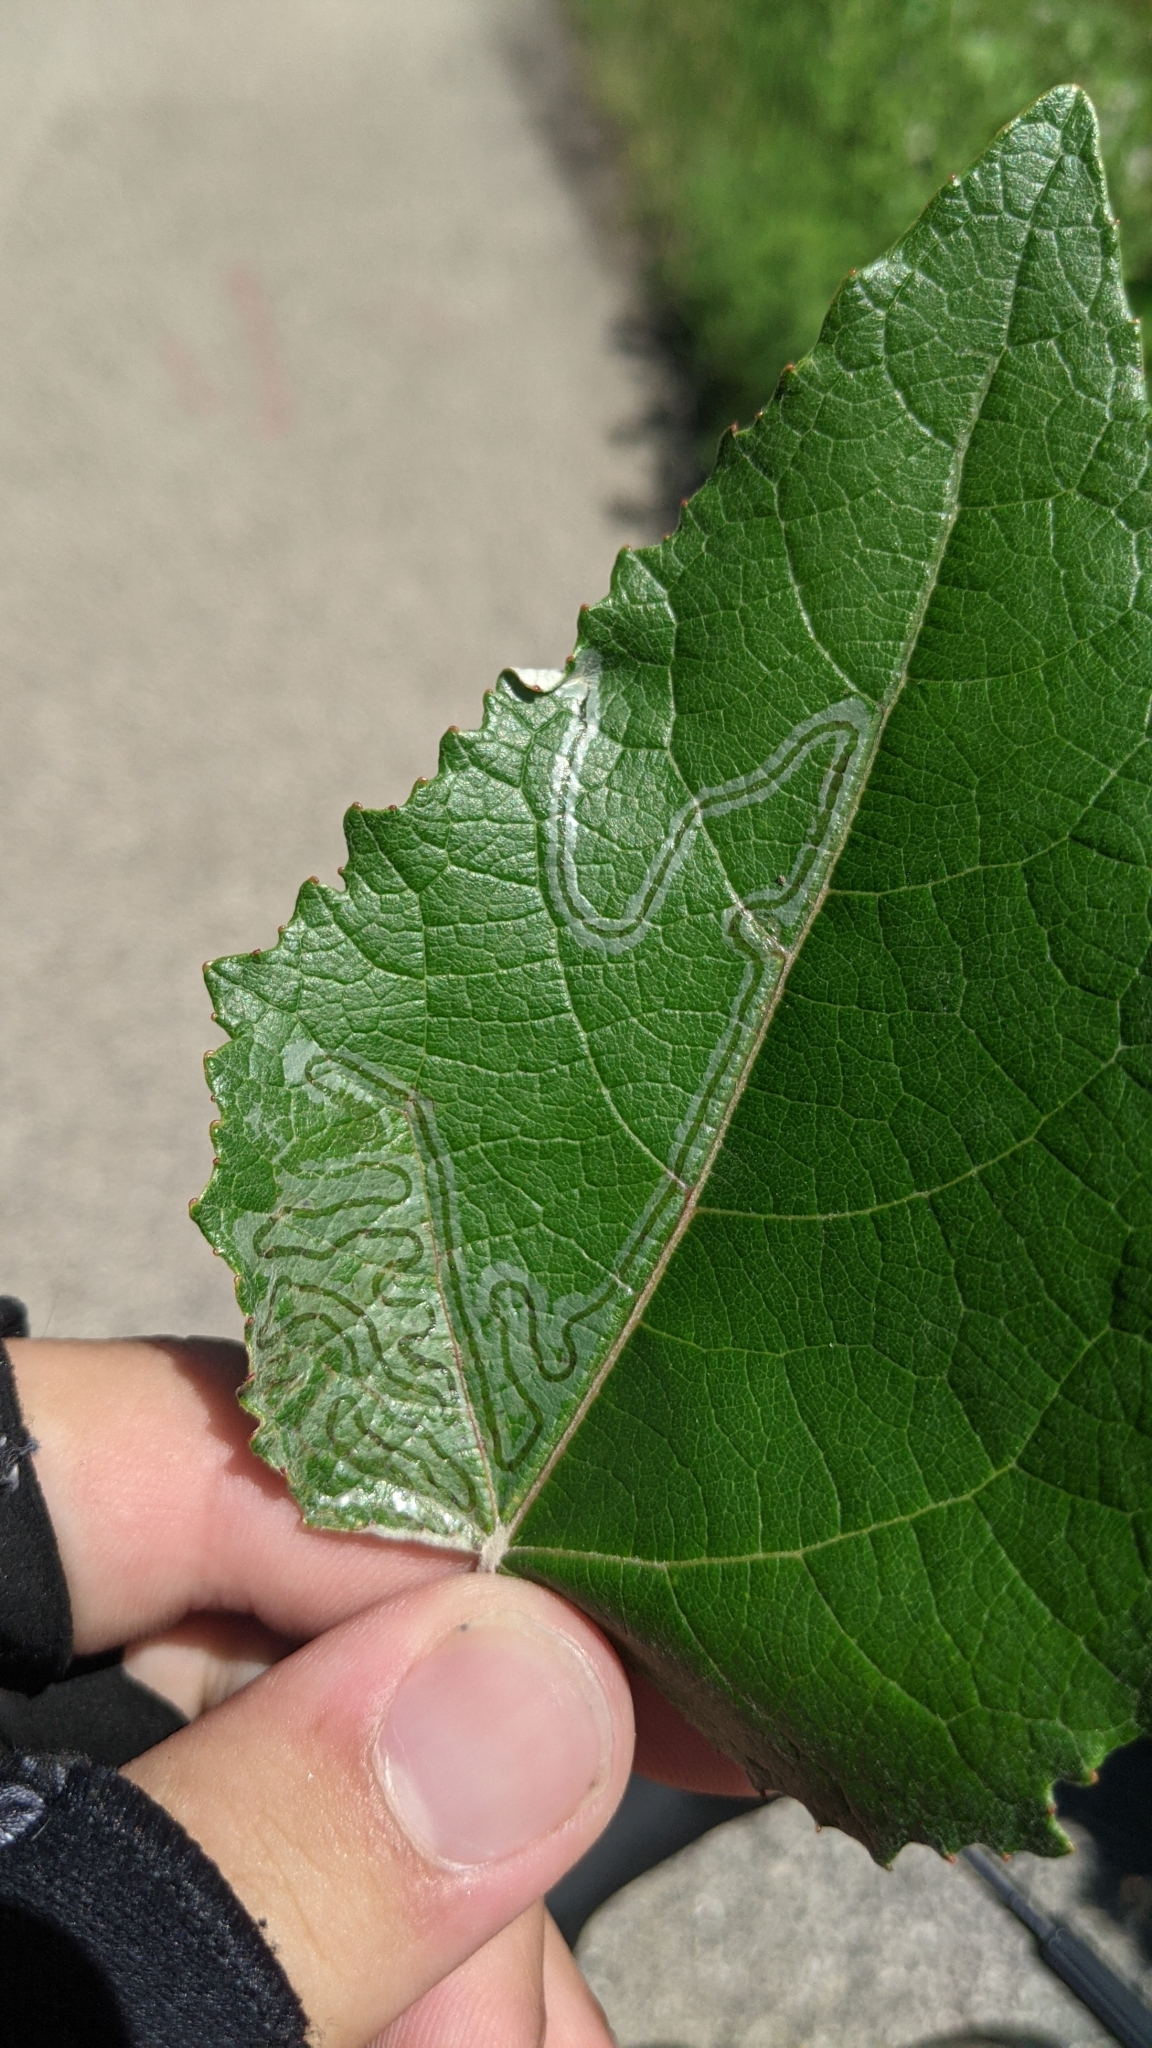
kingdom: Animalia
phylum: Arthropoda
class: Insecta
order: Lepidoptera
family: Gracillariidae
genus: Phyllocnistis
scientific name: Phyllocnistis populiella
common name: Aspen serpentine leafminer moth
